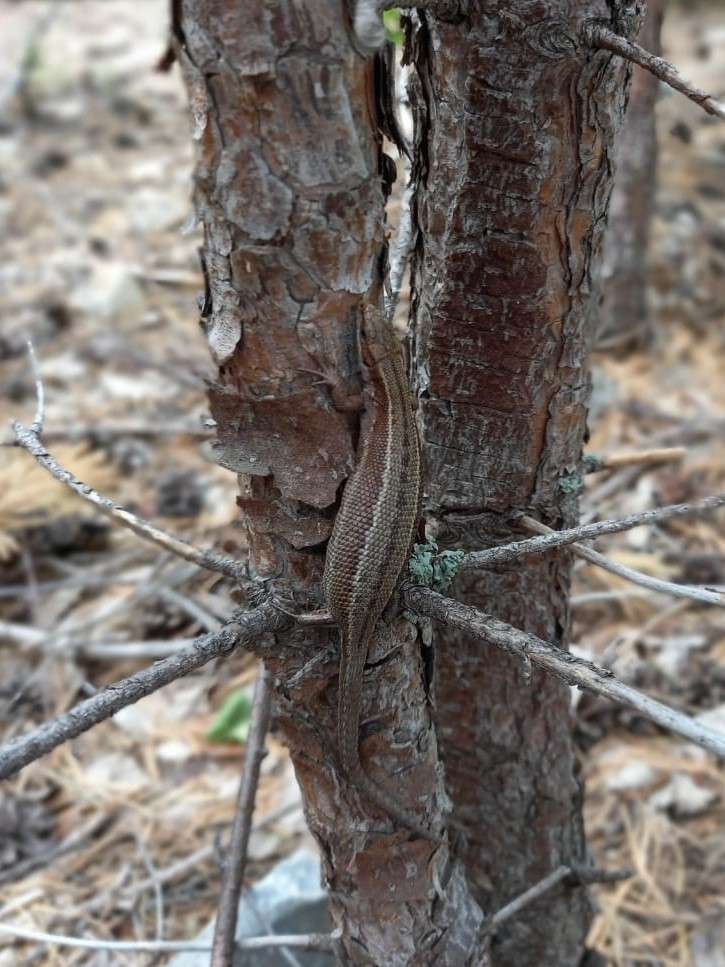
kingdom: Animalia
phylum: Chordata
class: Squamata
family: Lacertidae
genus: Zootoca
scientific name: Zootoca vivipara
